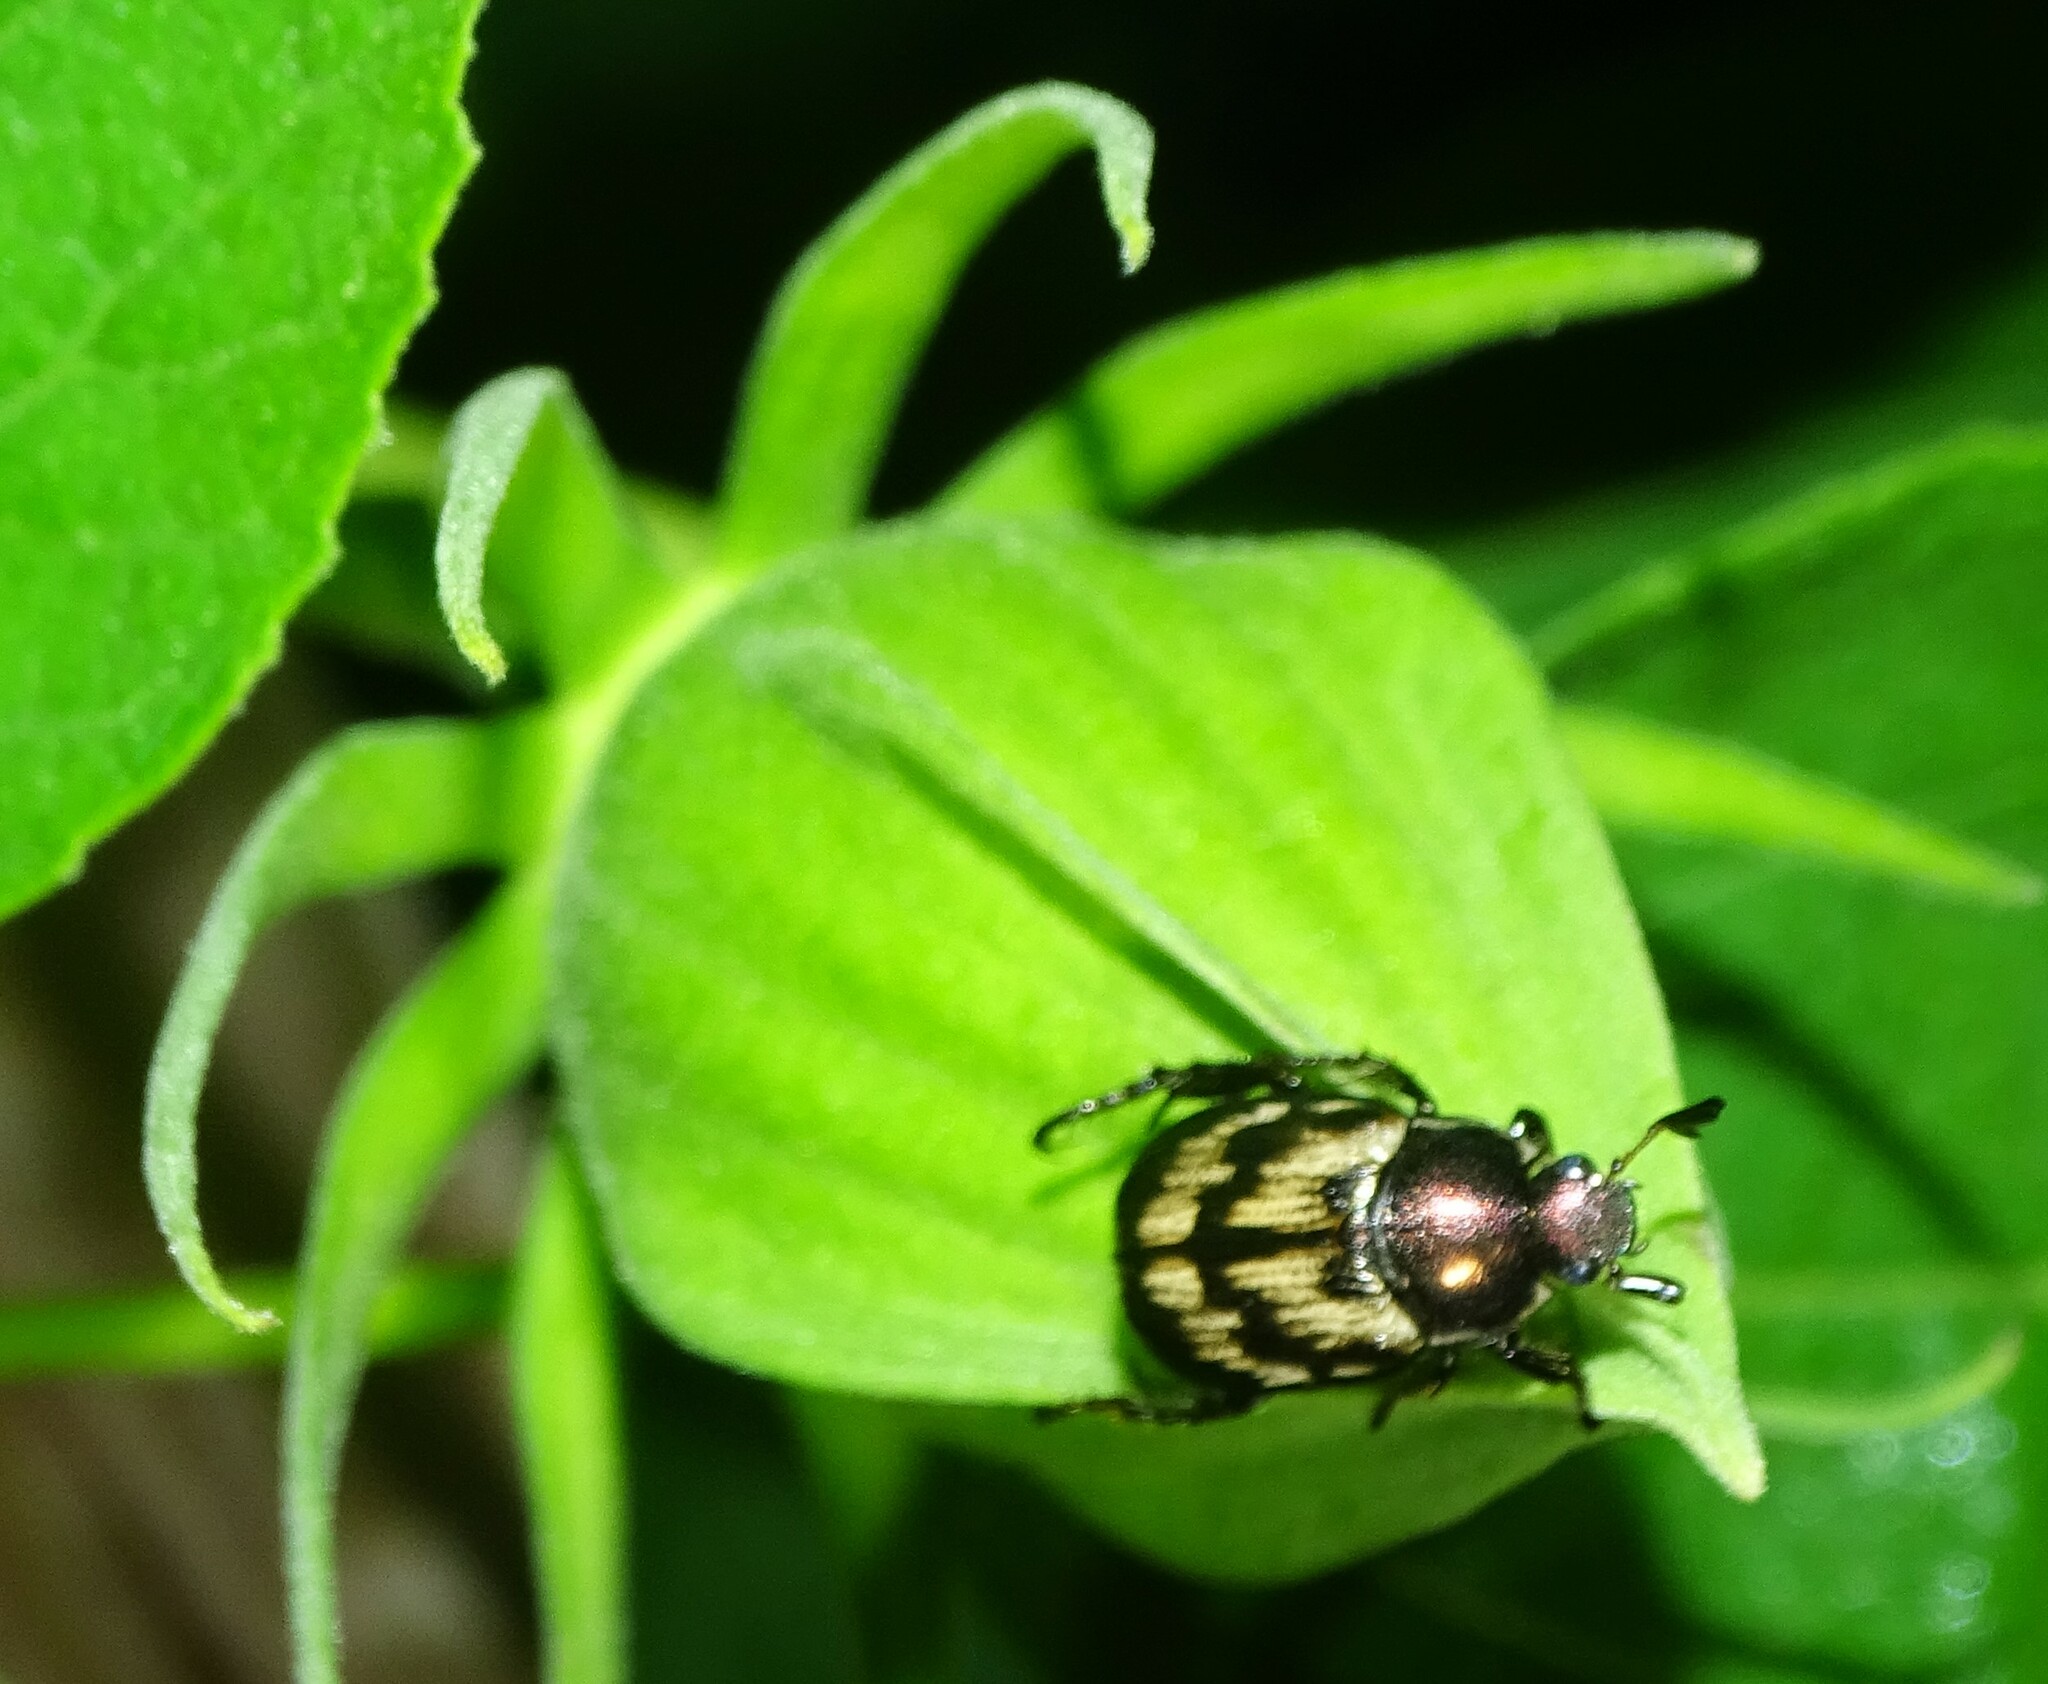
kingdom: Animalia
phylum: Arthropoda
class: Insecta
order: Coleoptera
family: Scarabaeidae
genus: Exomala
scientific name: Exomala orientalis
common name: Oriental beetle
